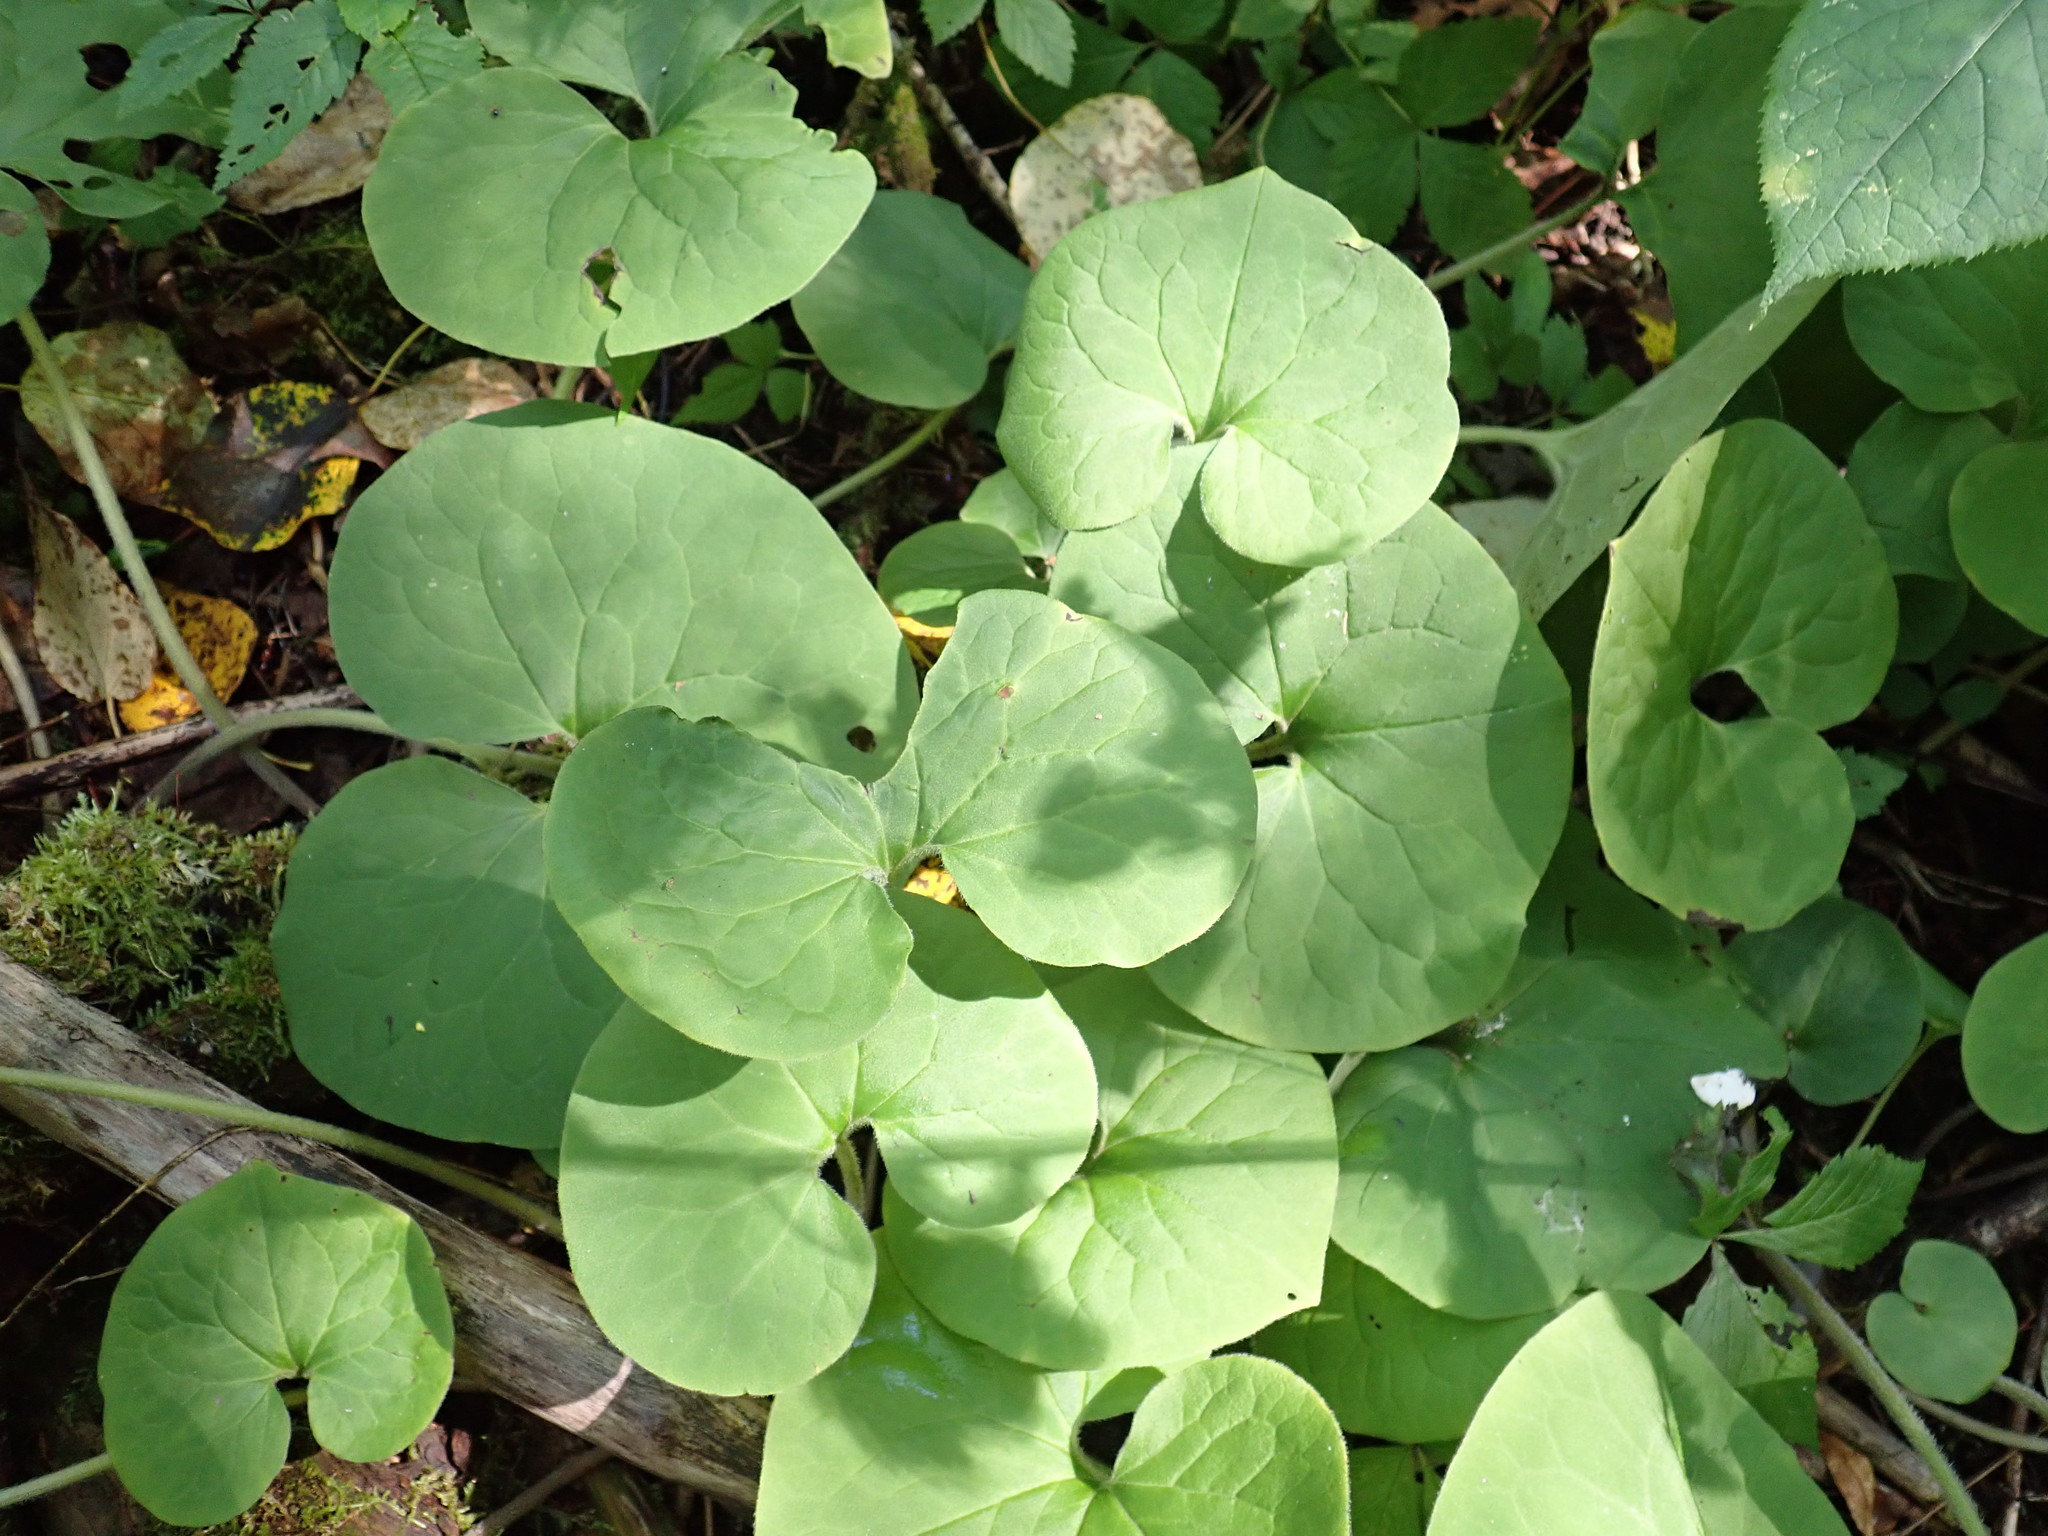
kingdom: Plantae
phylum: Tracheophyta
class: Magnoliopsida
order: Piperales
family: Aristolochiaceae
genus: Asarum
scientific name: Asarum canadense
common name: Wild ginger
